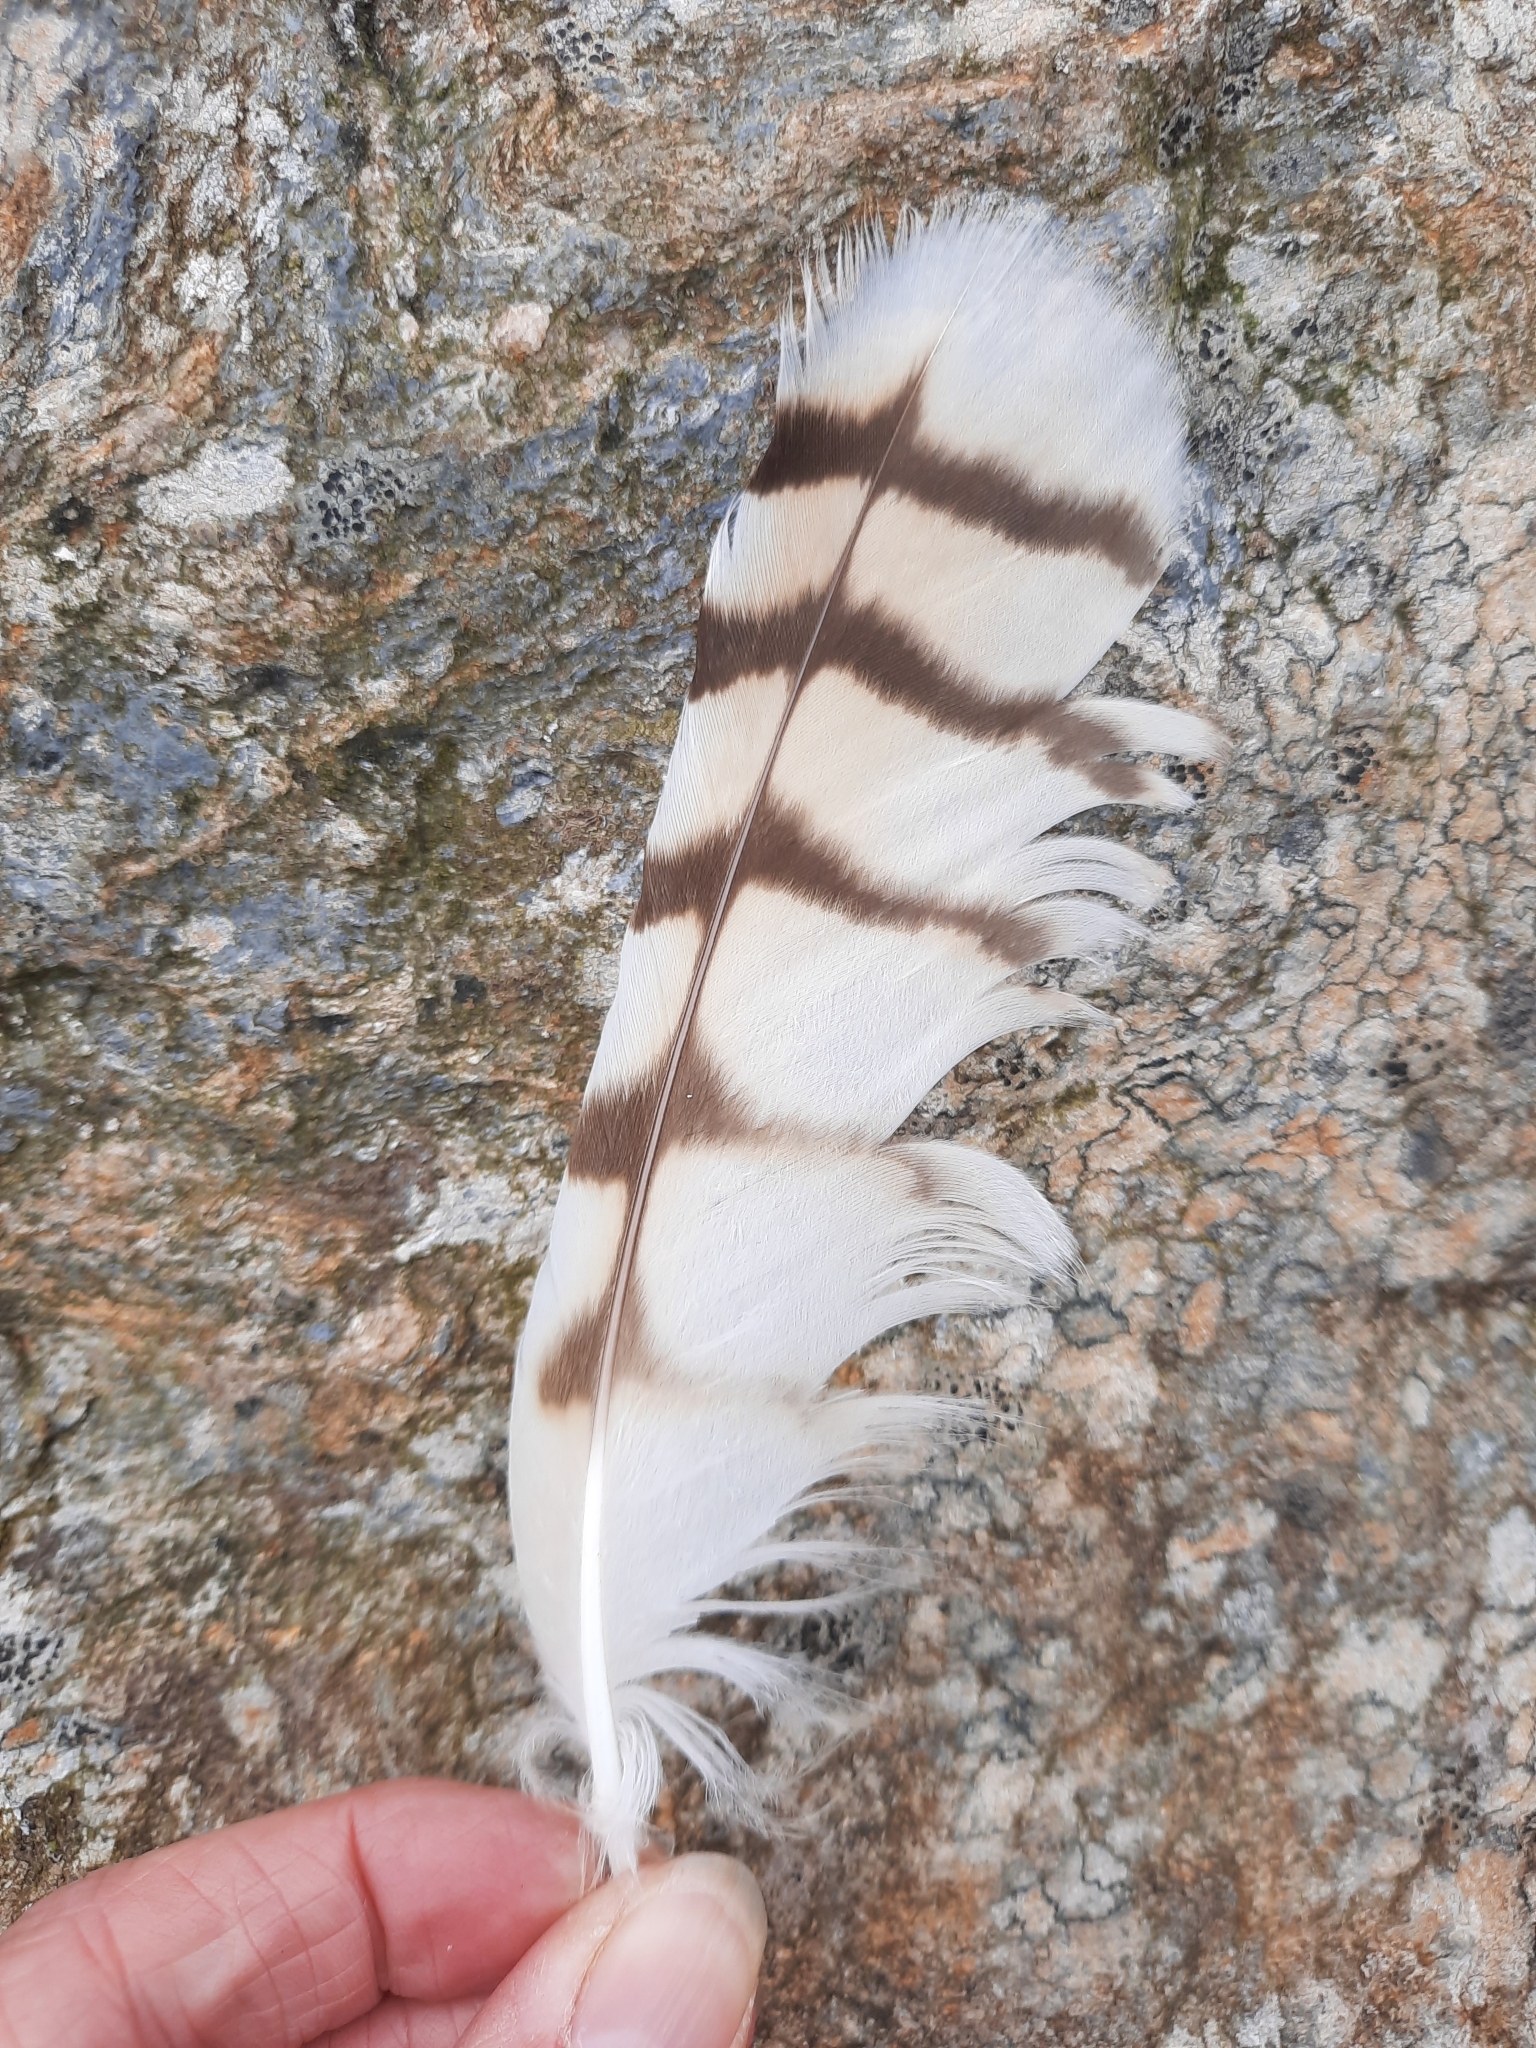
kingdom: Animalia
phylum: Chordata
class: Aves
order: Strigiformes
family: Strigidae
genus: Asio
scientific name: Asio flammeus
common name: Short-eared owl
